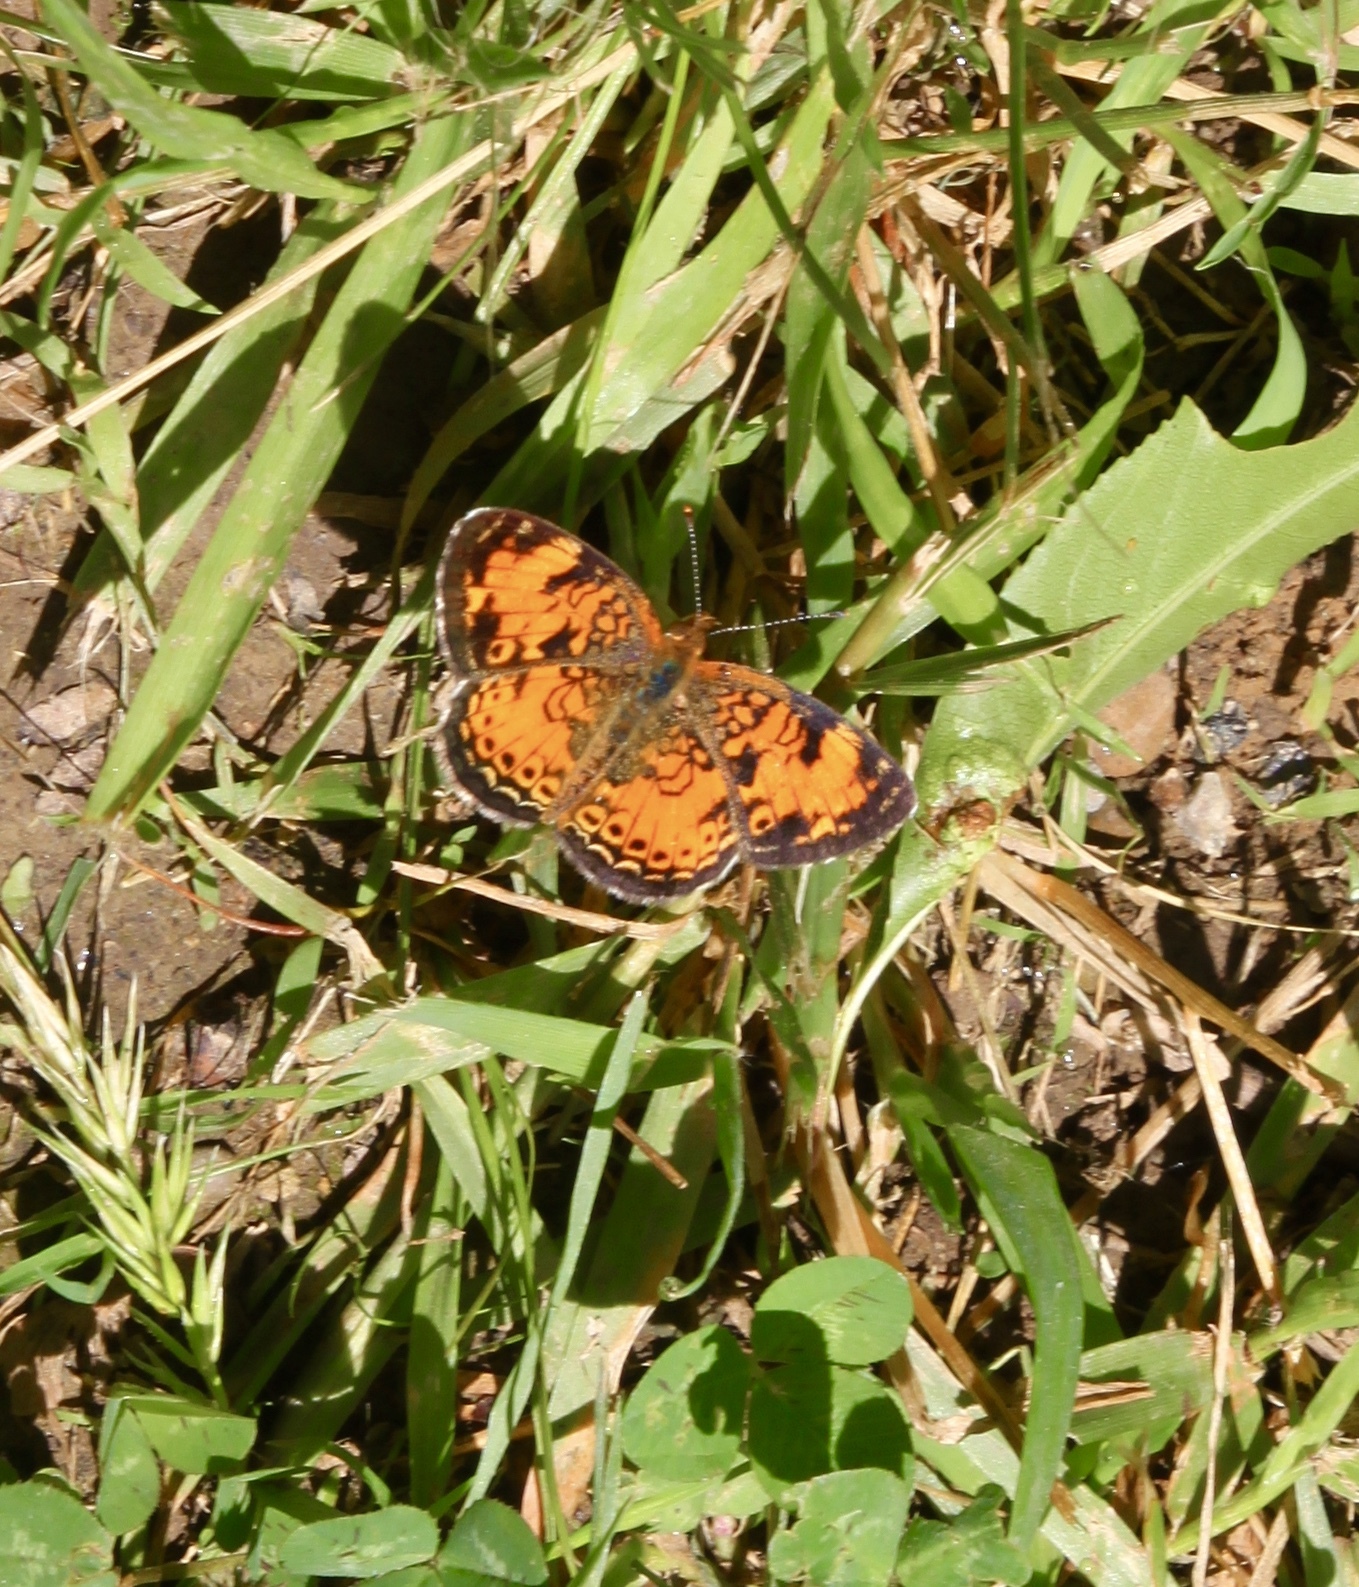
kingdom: Animalia
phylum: Arthropoda
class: Insecta
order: Lepidoptera
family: Nymphalidae
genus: Phyciodes
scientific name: Phyciodes tharos
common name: Pearl crescent
